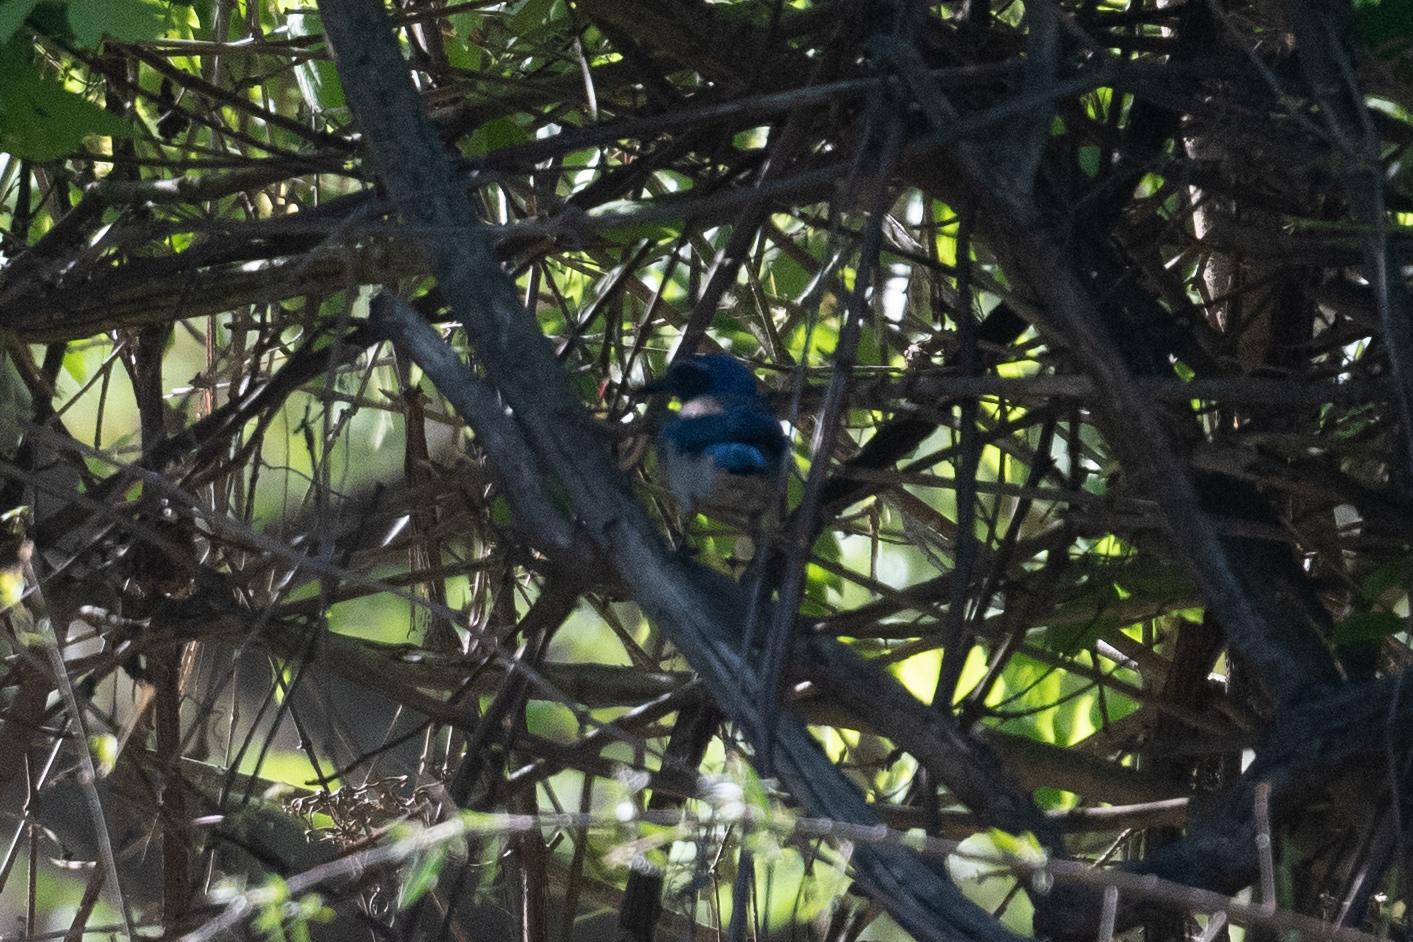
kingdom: Animalia
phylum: Chordata
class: Aves
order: Passeriformes
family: Corvidae
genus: Aphelocoma
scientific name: Aphelocoma californica
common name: California scrub-jay
